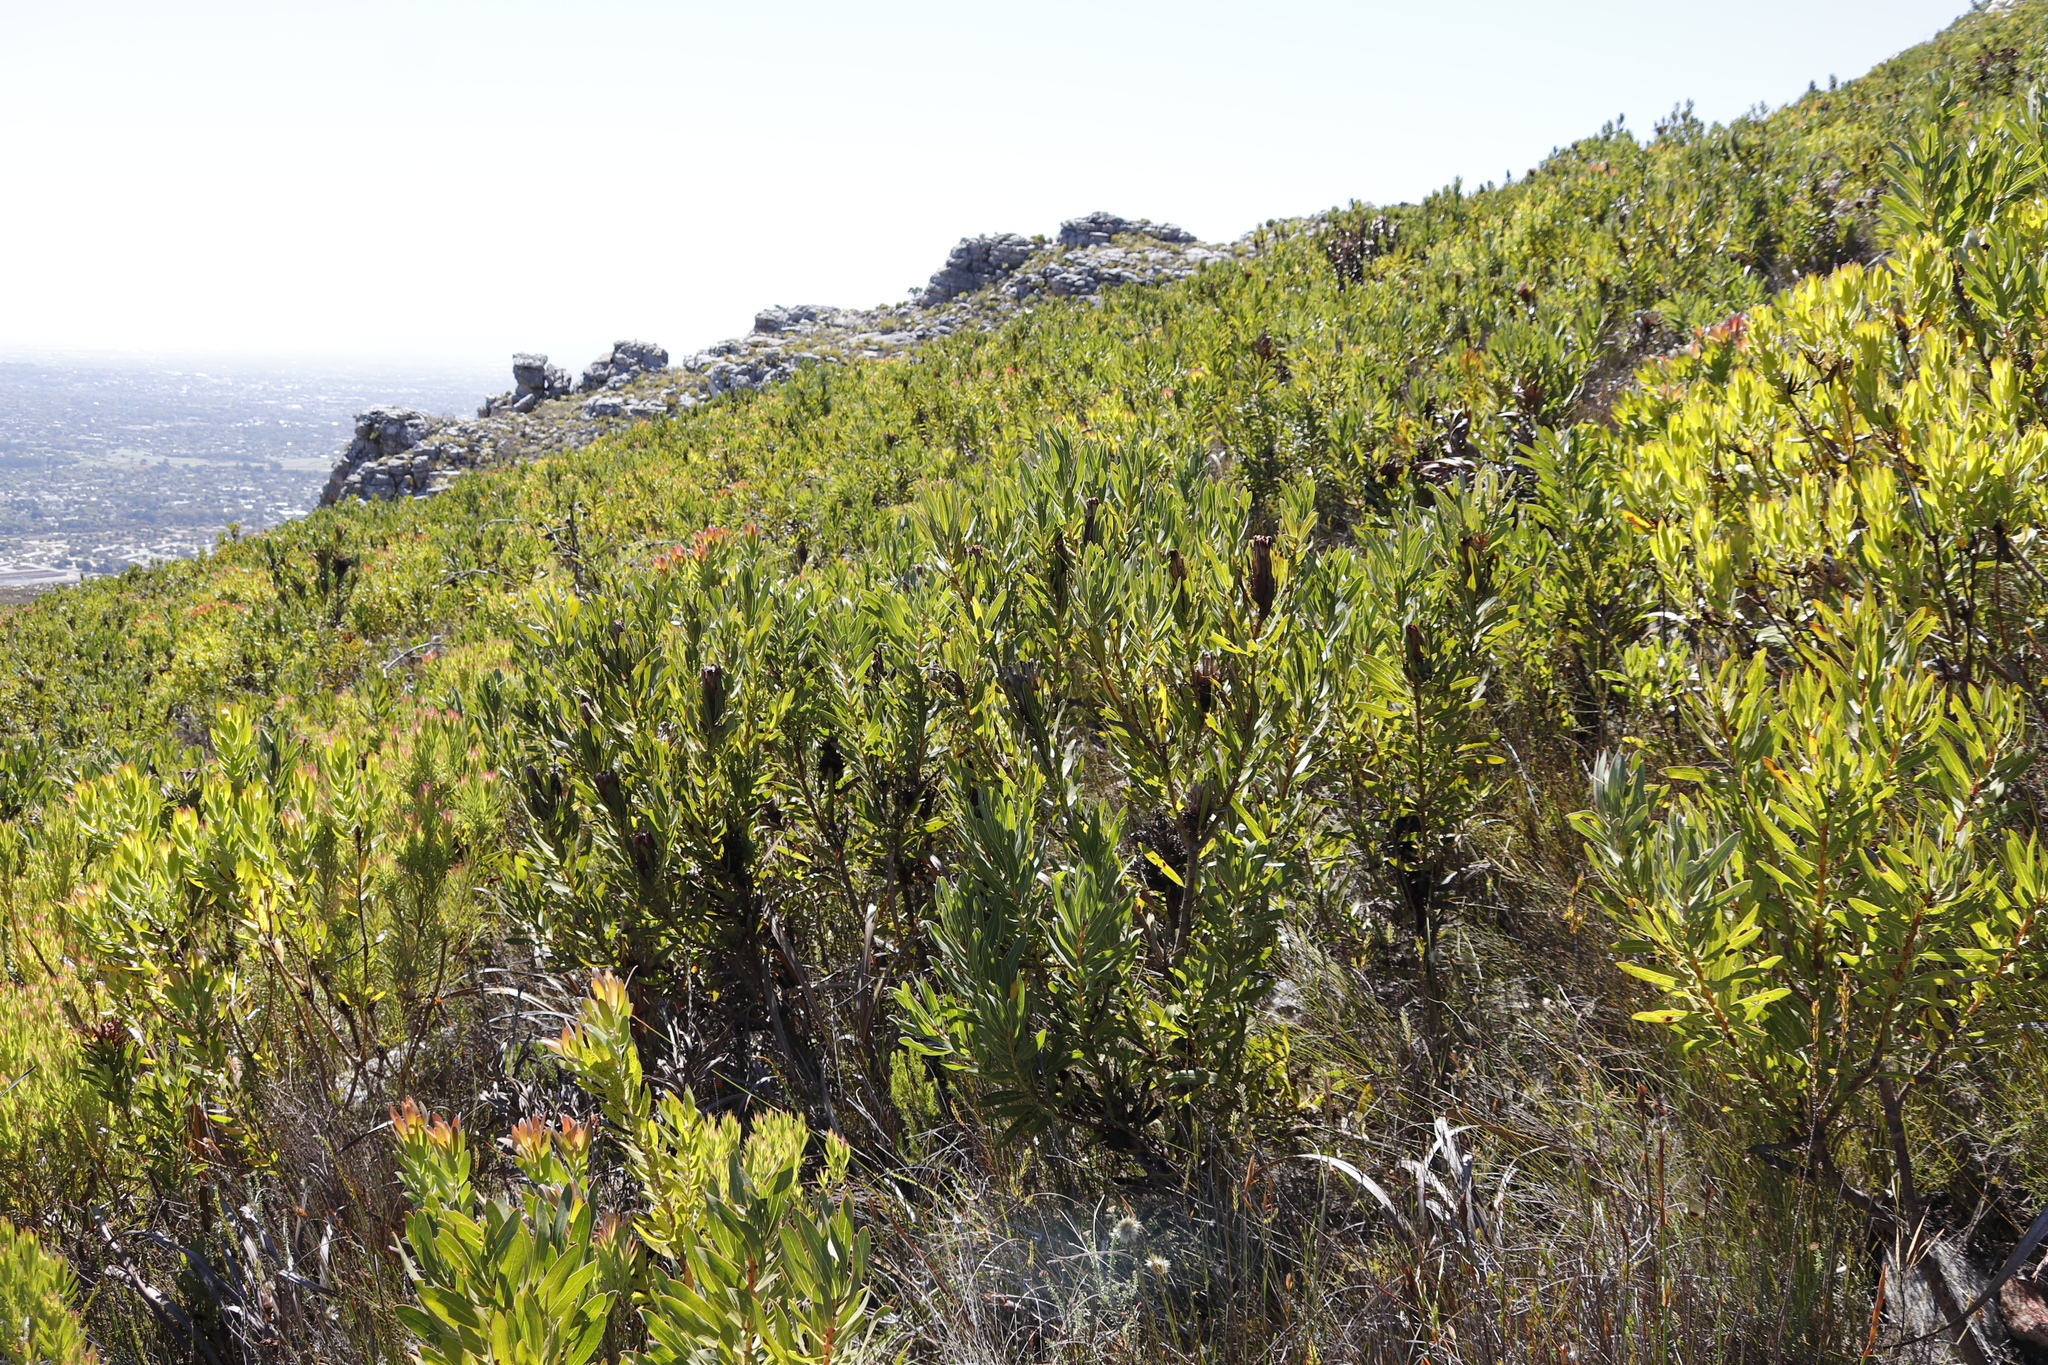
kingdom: Plantae
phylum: Tracheophyta
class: Magnoliopsida
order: Proteales
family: Proteaceae
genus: Protea
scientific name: Protea lepidocarpodendron
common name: Black-bearded protea
